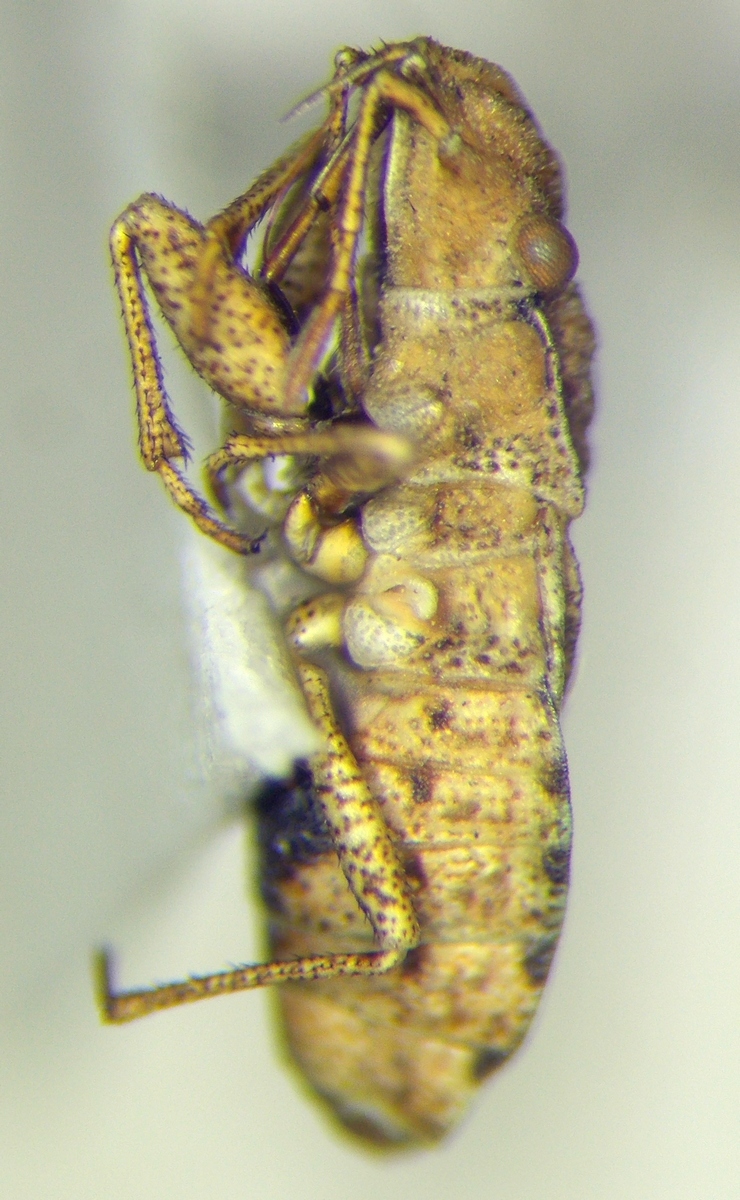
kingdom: Animalia
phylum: Arthropoda
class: Insecta
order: Hemiptera
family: Rhyparochromidae
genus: Diomphalus
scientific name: Diomphalus hispidulus
